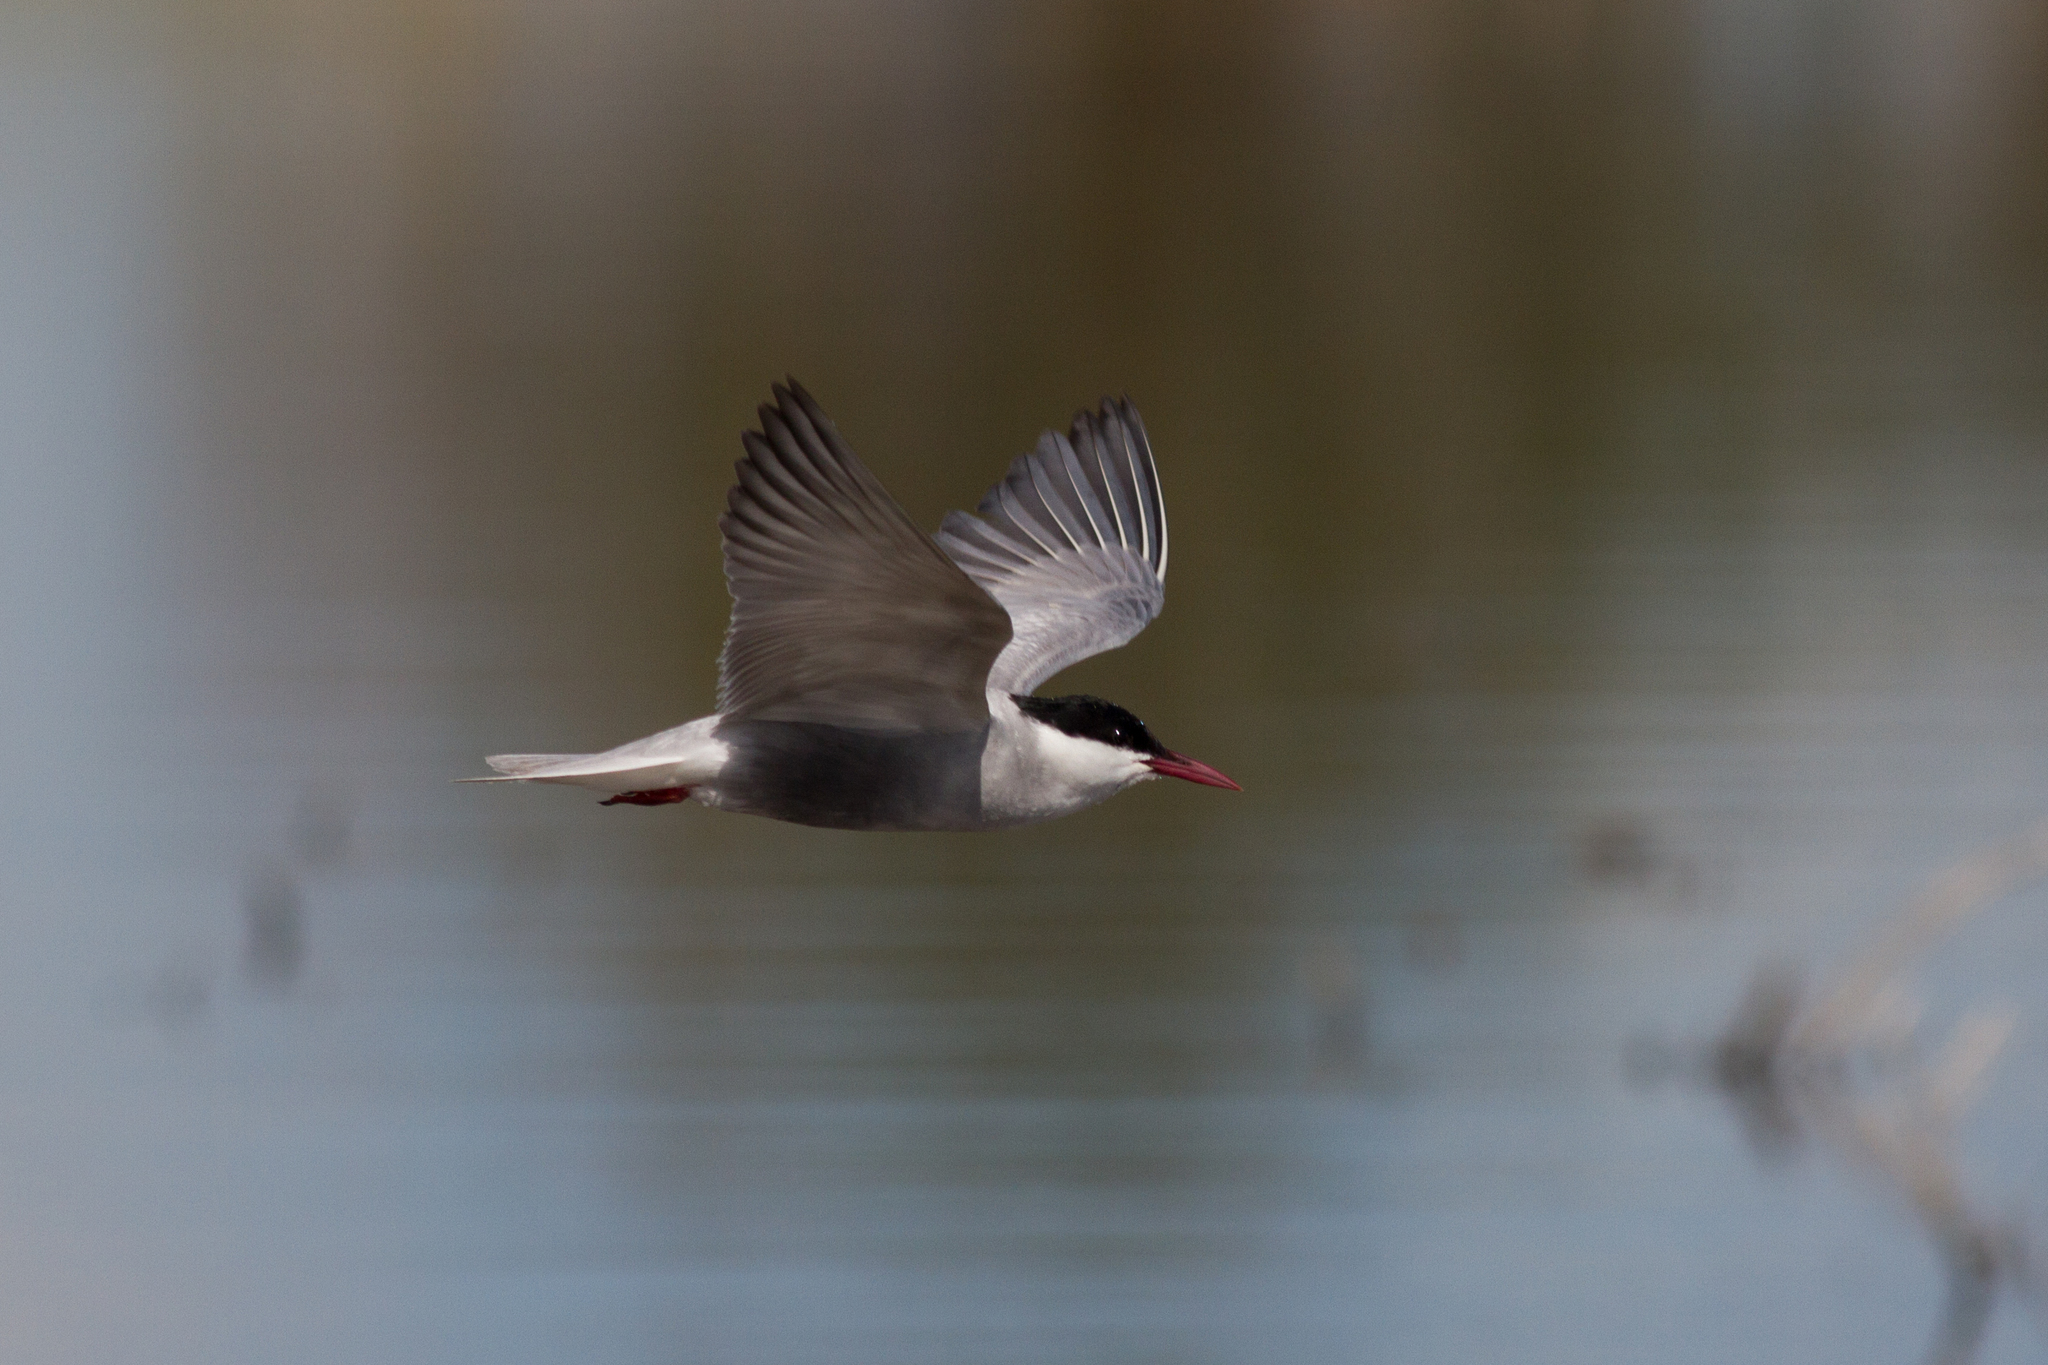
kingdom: Animalia
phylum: Chordata
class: Aves
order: Charadriiformes
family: Laridae
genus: Chlidonias
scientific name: Chlidonias hybrida
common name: Whiskered tern
